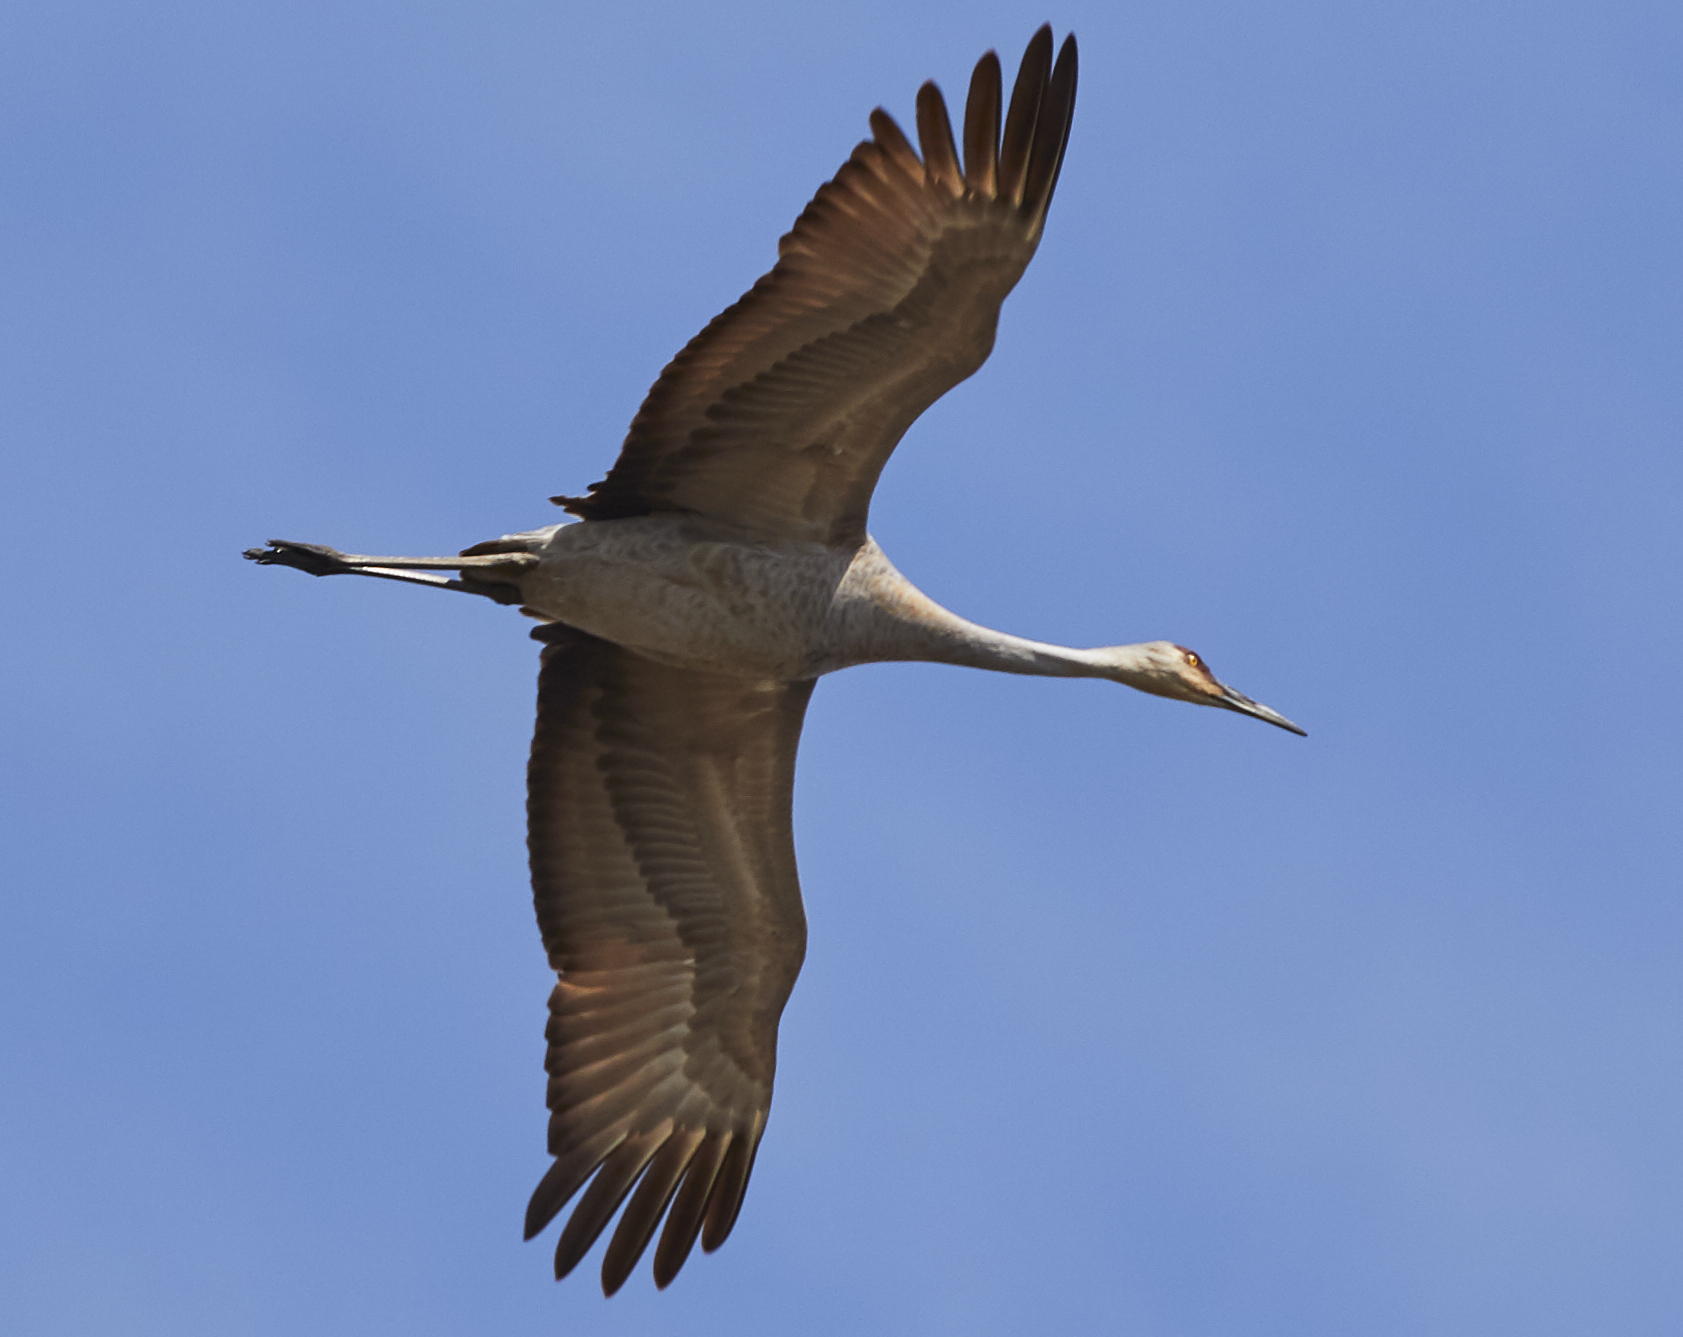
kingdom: Animalia
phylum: Chordata
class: Aves
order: Gruiformes
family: Gruidae
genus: Grus
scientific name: Grus canadensis
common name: Sandhill crane
